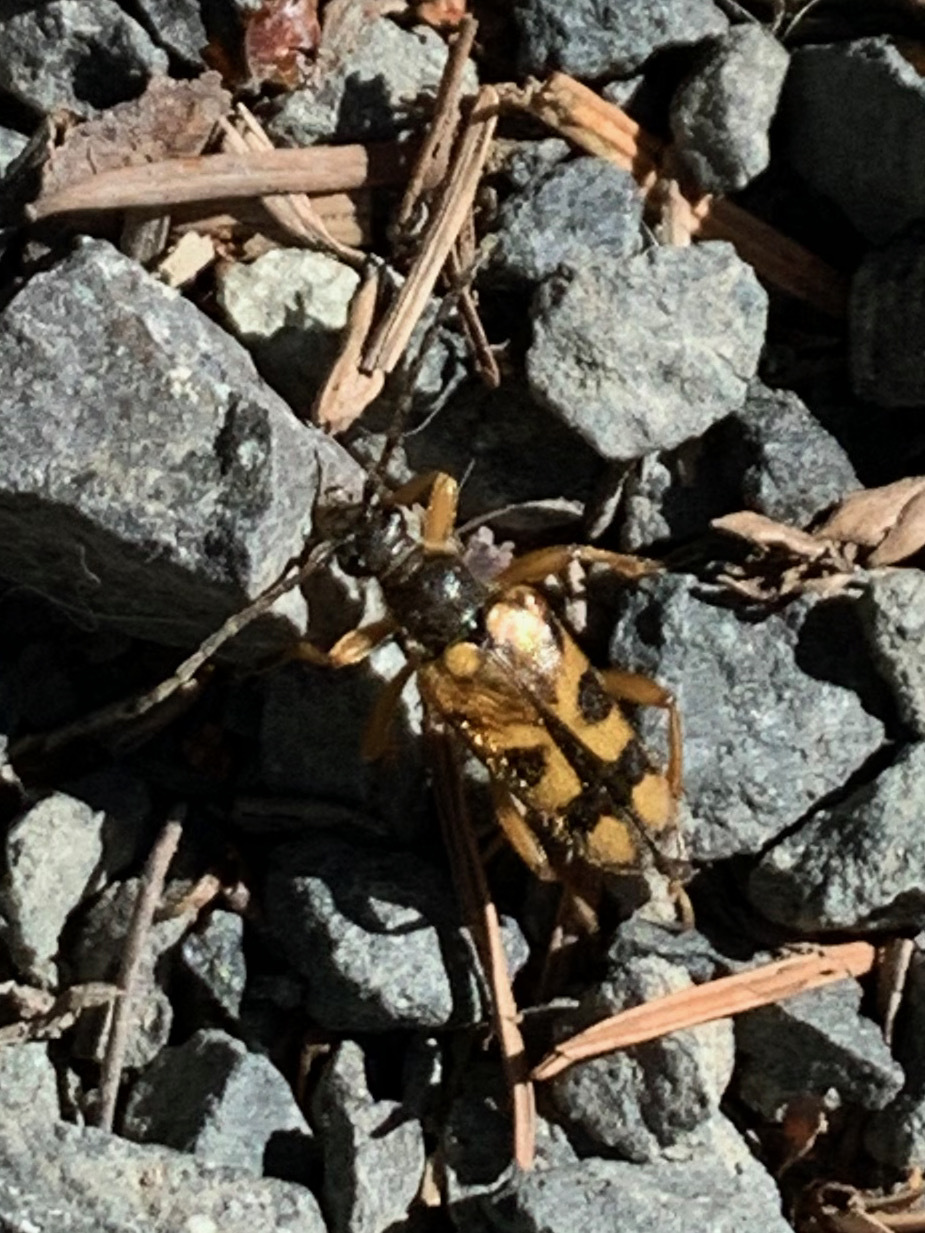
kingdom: Animalia
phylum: Arthropoda
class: Insecta
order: Coleoptera
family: Cerambycidae
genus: Xestoleptura
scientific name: Xestoleptura crassipes
